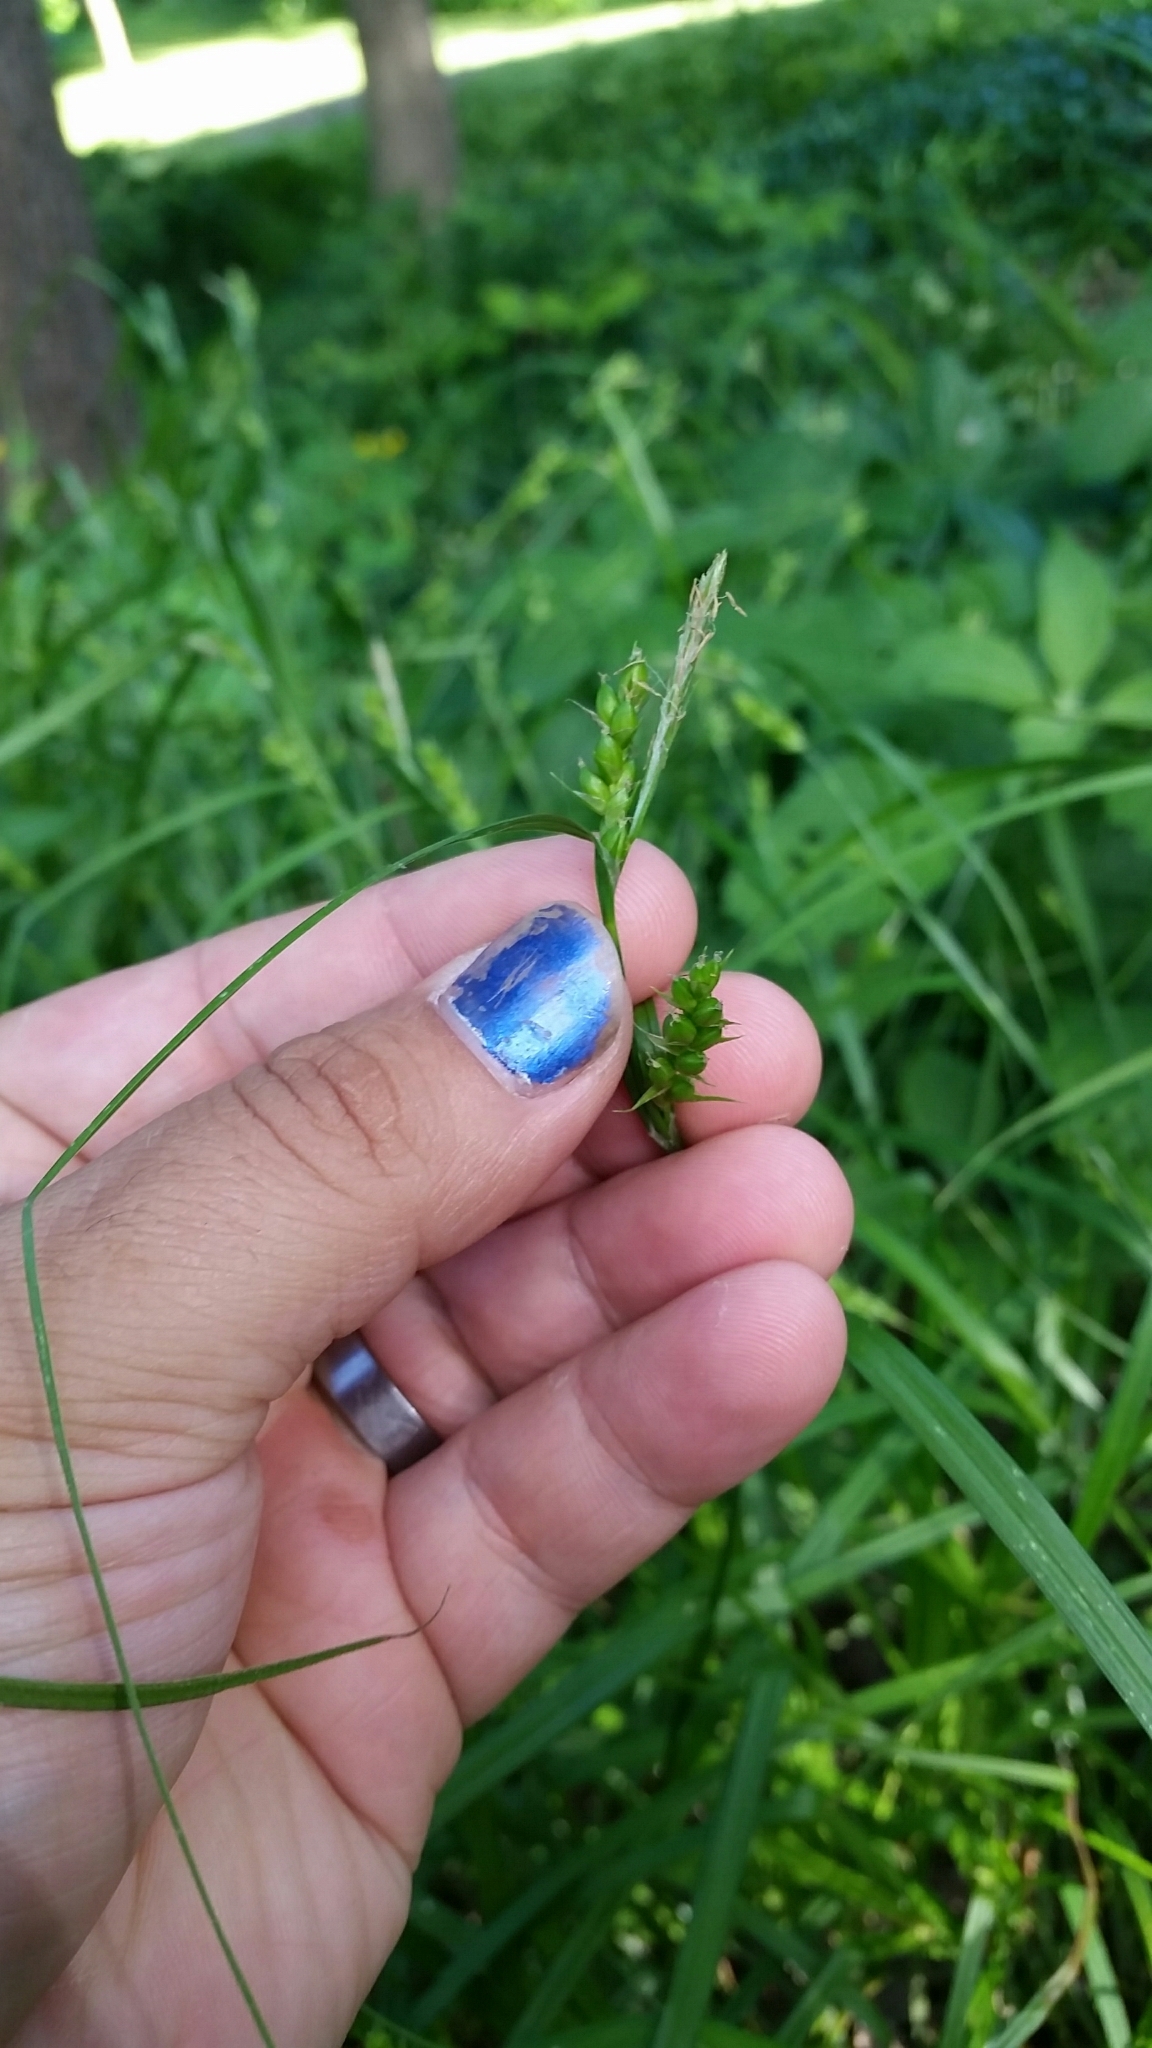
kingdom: Plantae
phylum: Tracheophyta
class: Liliopsida
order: Poales
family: Cyperaceae
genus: Carex
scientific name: Carex grisea
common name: Eastern narrow-leaved sedge
